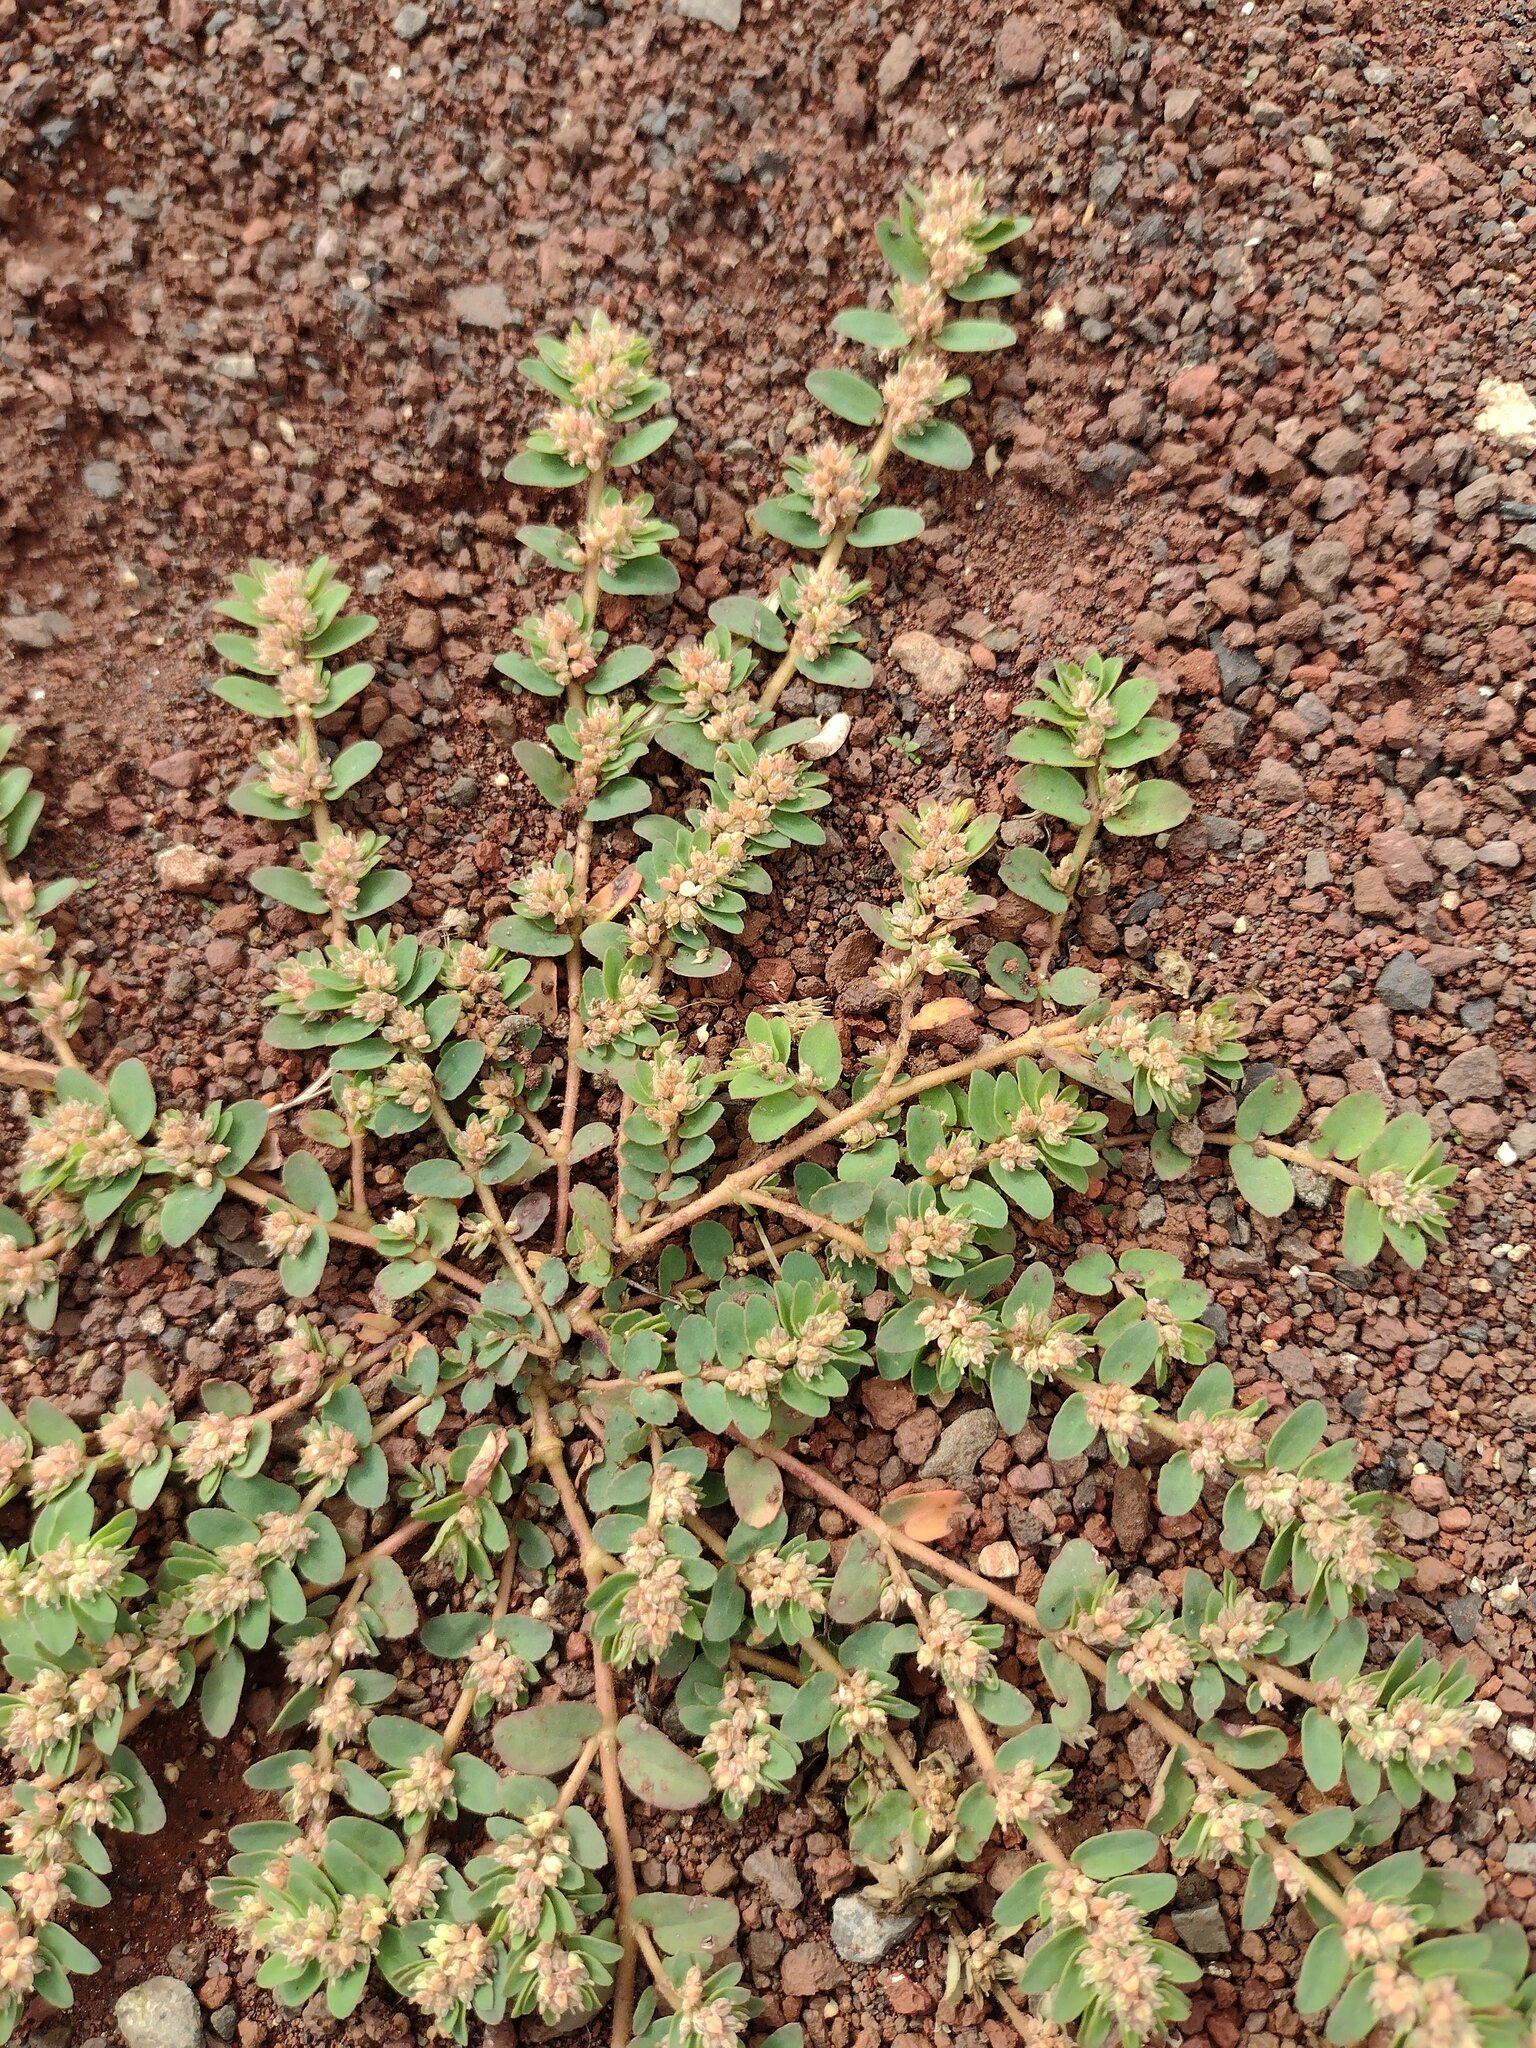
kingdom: Plantae
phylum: Tracheophyta
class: Magnoliopsida
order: Malpighiales
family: Euphorbiaceae
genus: Euphorbia
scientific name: Euphorbia thymifolia
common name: Gulf sandmat
